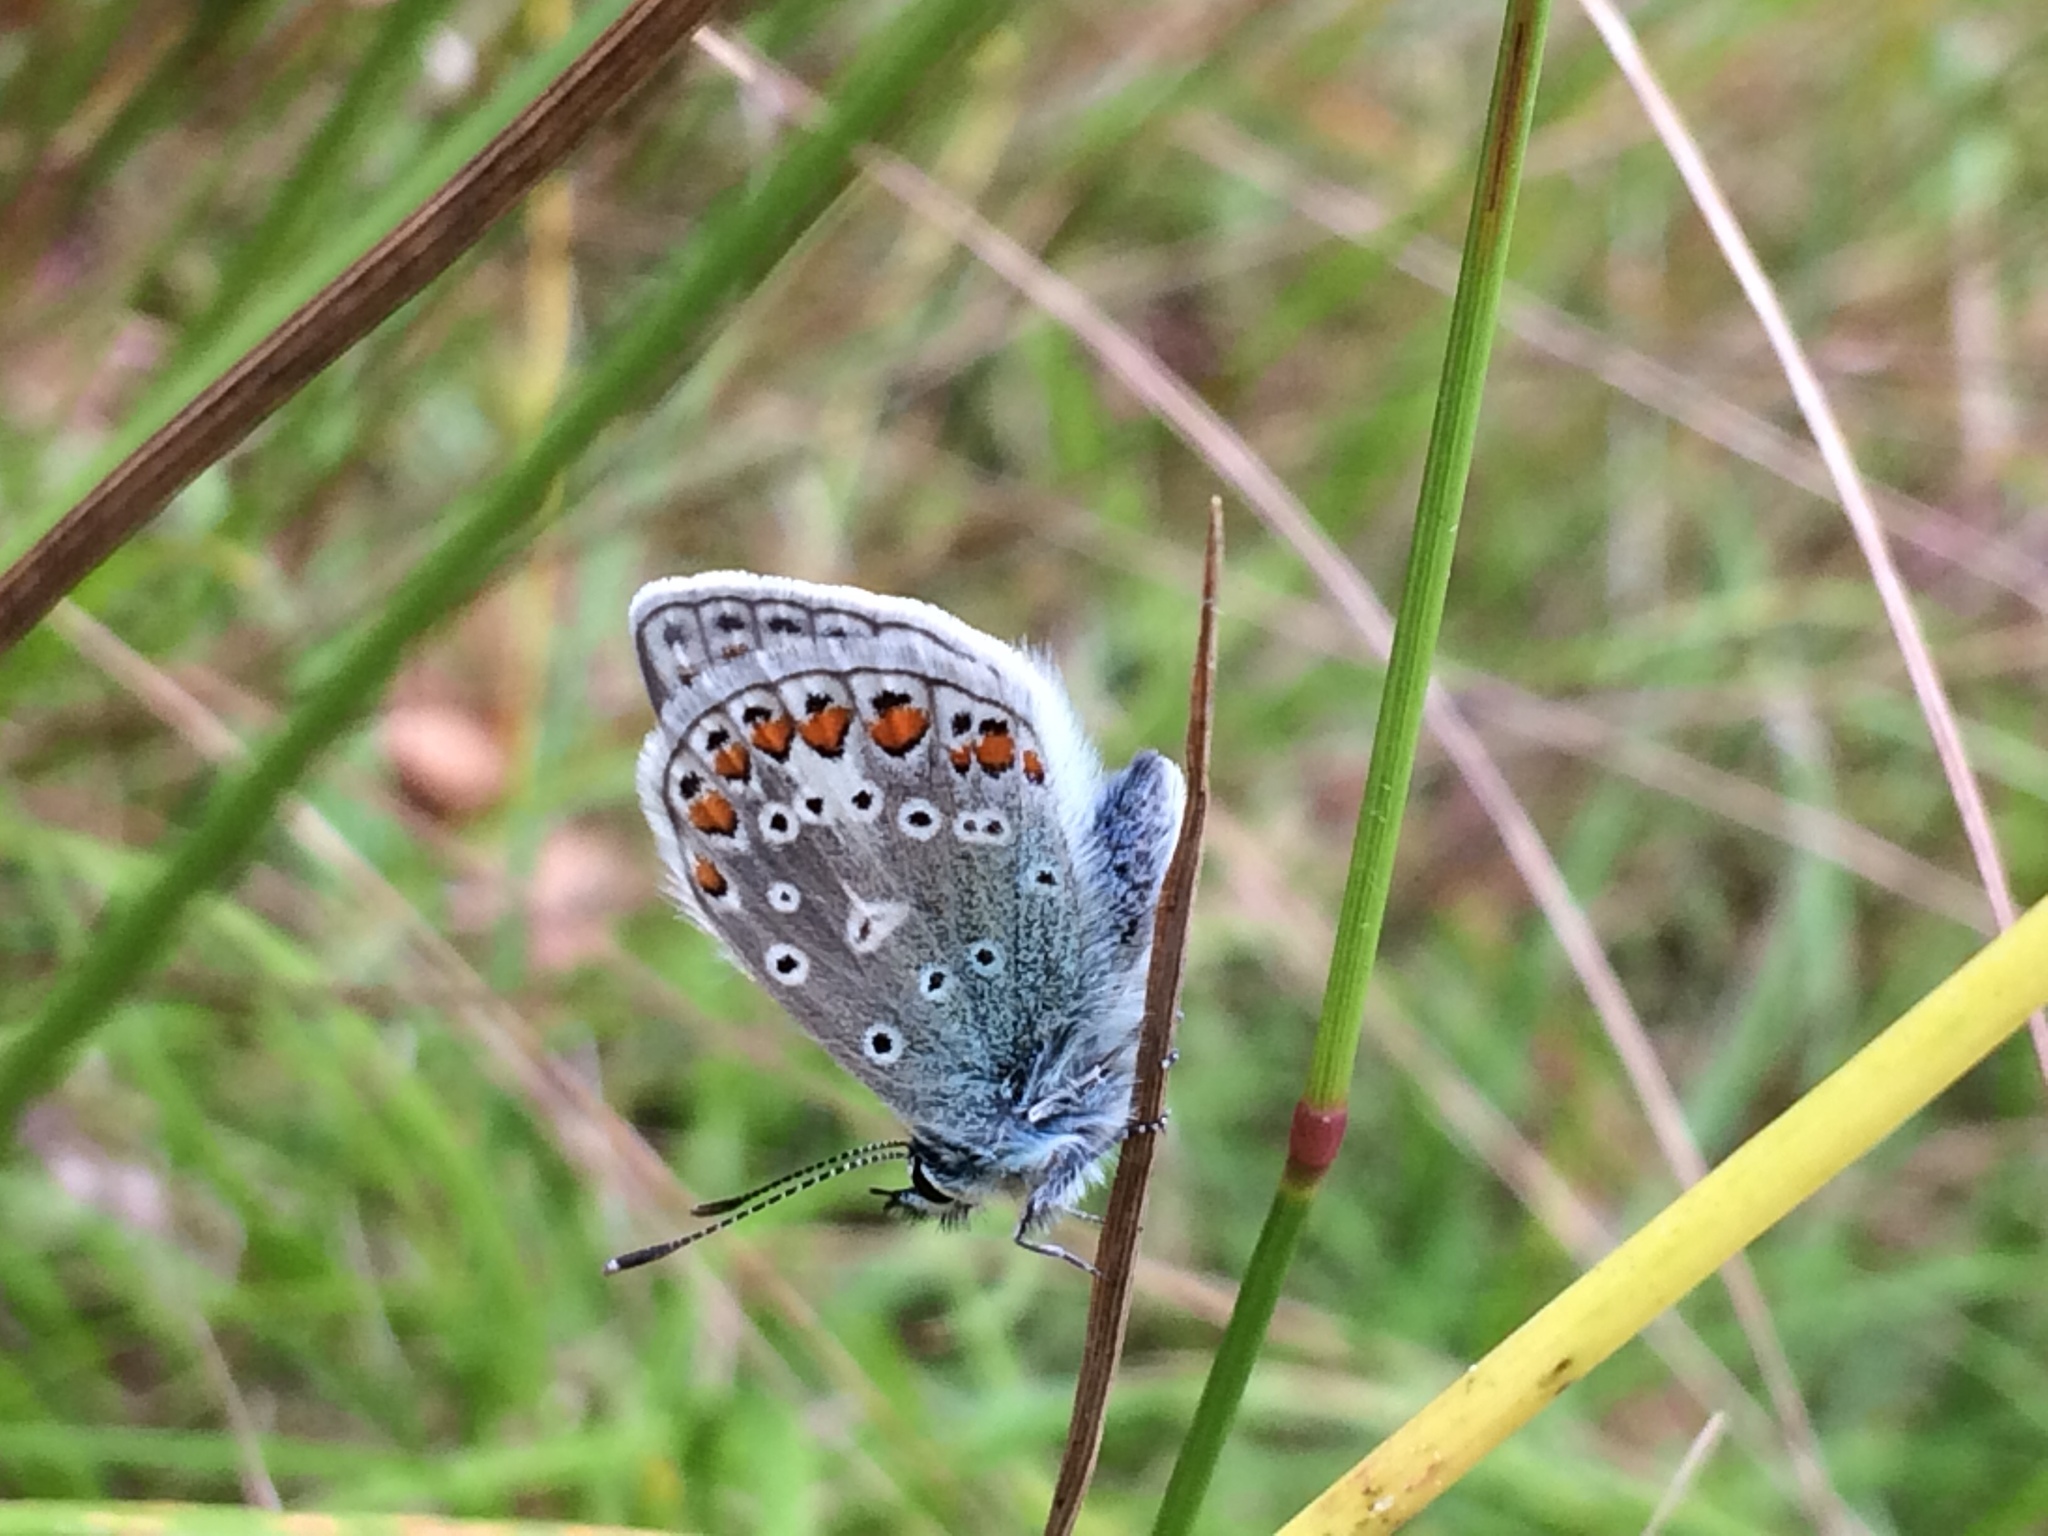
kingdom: Animalia
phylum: Arthropoda
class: Insecta
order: Lepidoptera
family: Lycaenidae
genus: Polyommatus
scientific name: Polyommatus icarus
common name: Common blue
